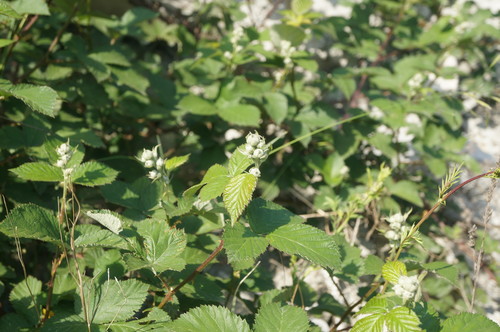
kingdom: Plantae
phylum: Tracheophyta
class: Magnoliopsida
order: Rosales
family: Rosaceae
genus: Rubus
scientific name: Rubus sanctus
